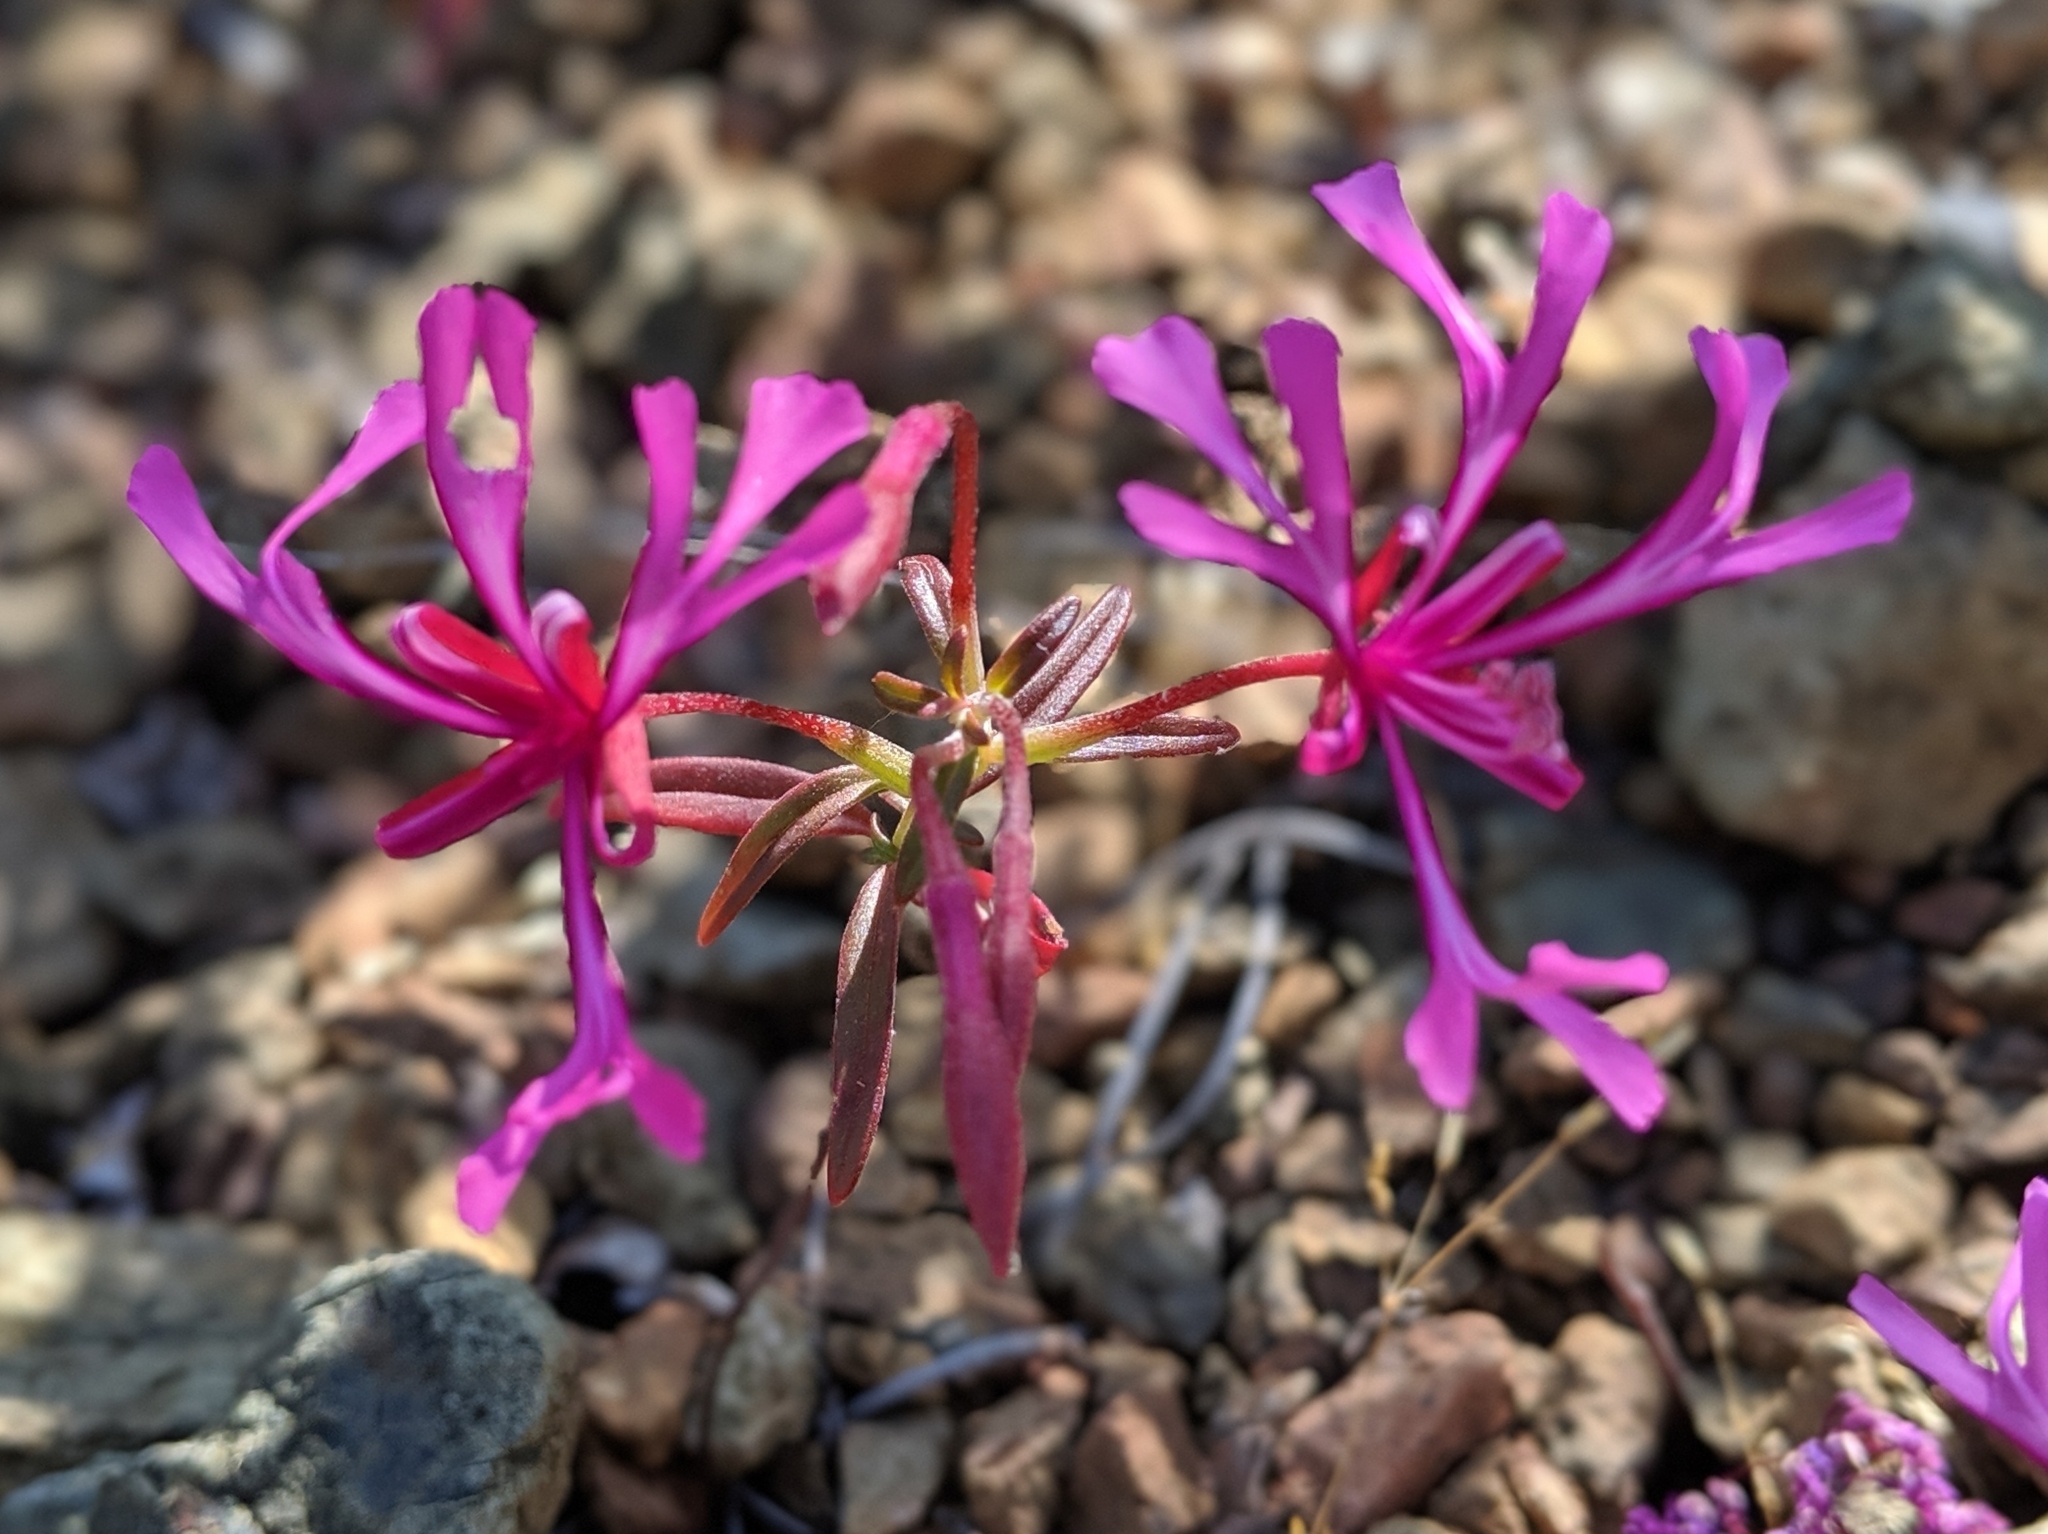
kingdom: Plantae
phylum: Tracheophyta
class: Magnoliopsida
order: Myrtales
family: Onagraceae
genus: Clarkia
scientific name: Clarkia concinna
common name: Red-ribbons
